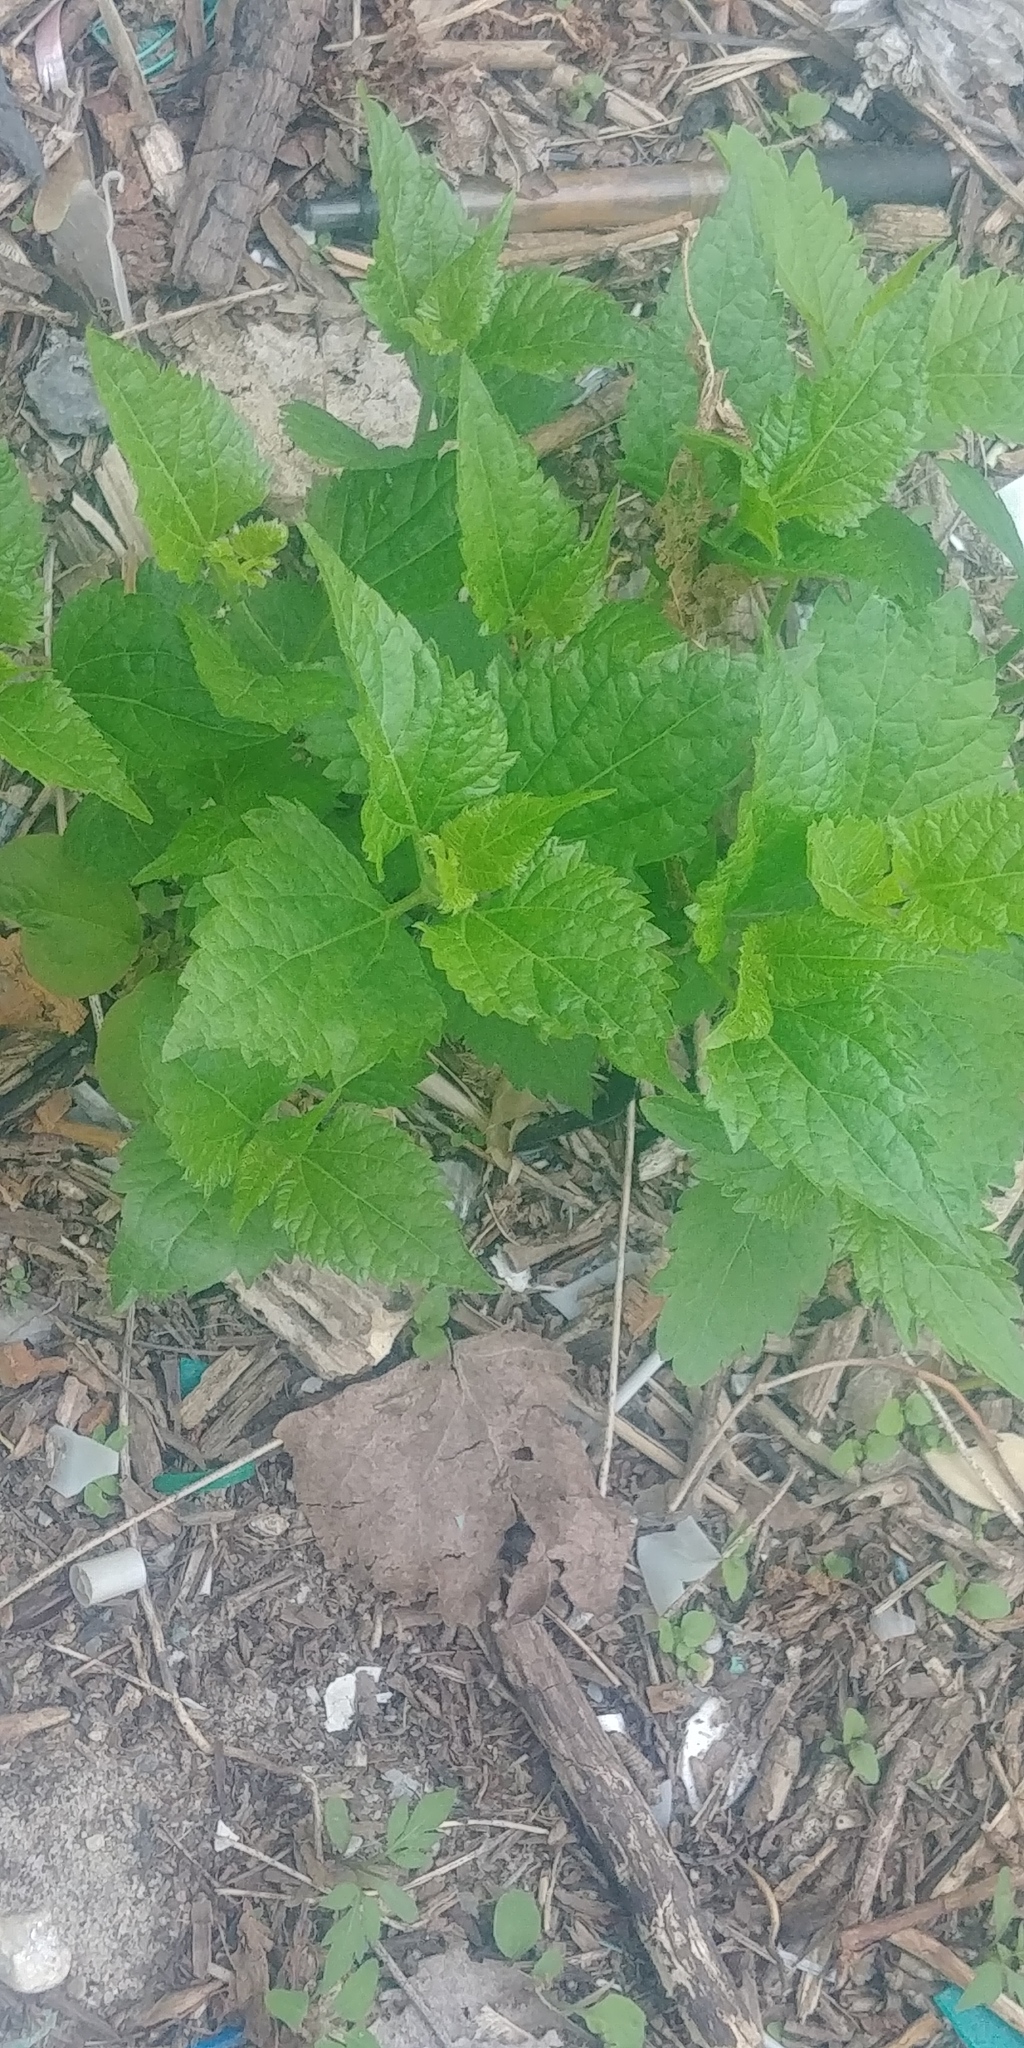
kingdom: Plantae
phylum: Tracheophyta
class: Magnoliopsida
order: Asterales
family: Asteraceae
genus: Ageratina
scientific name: Ageratina altissima
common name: White snakeroot
